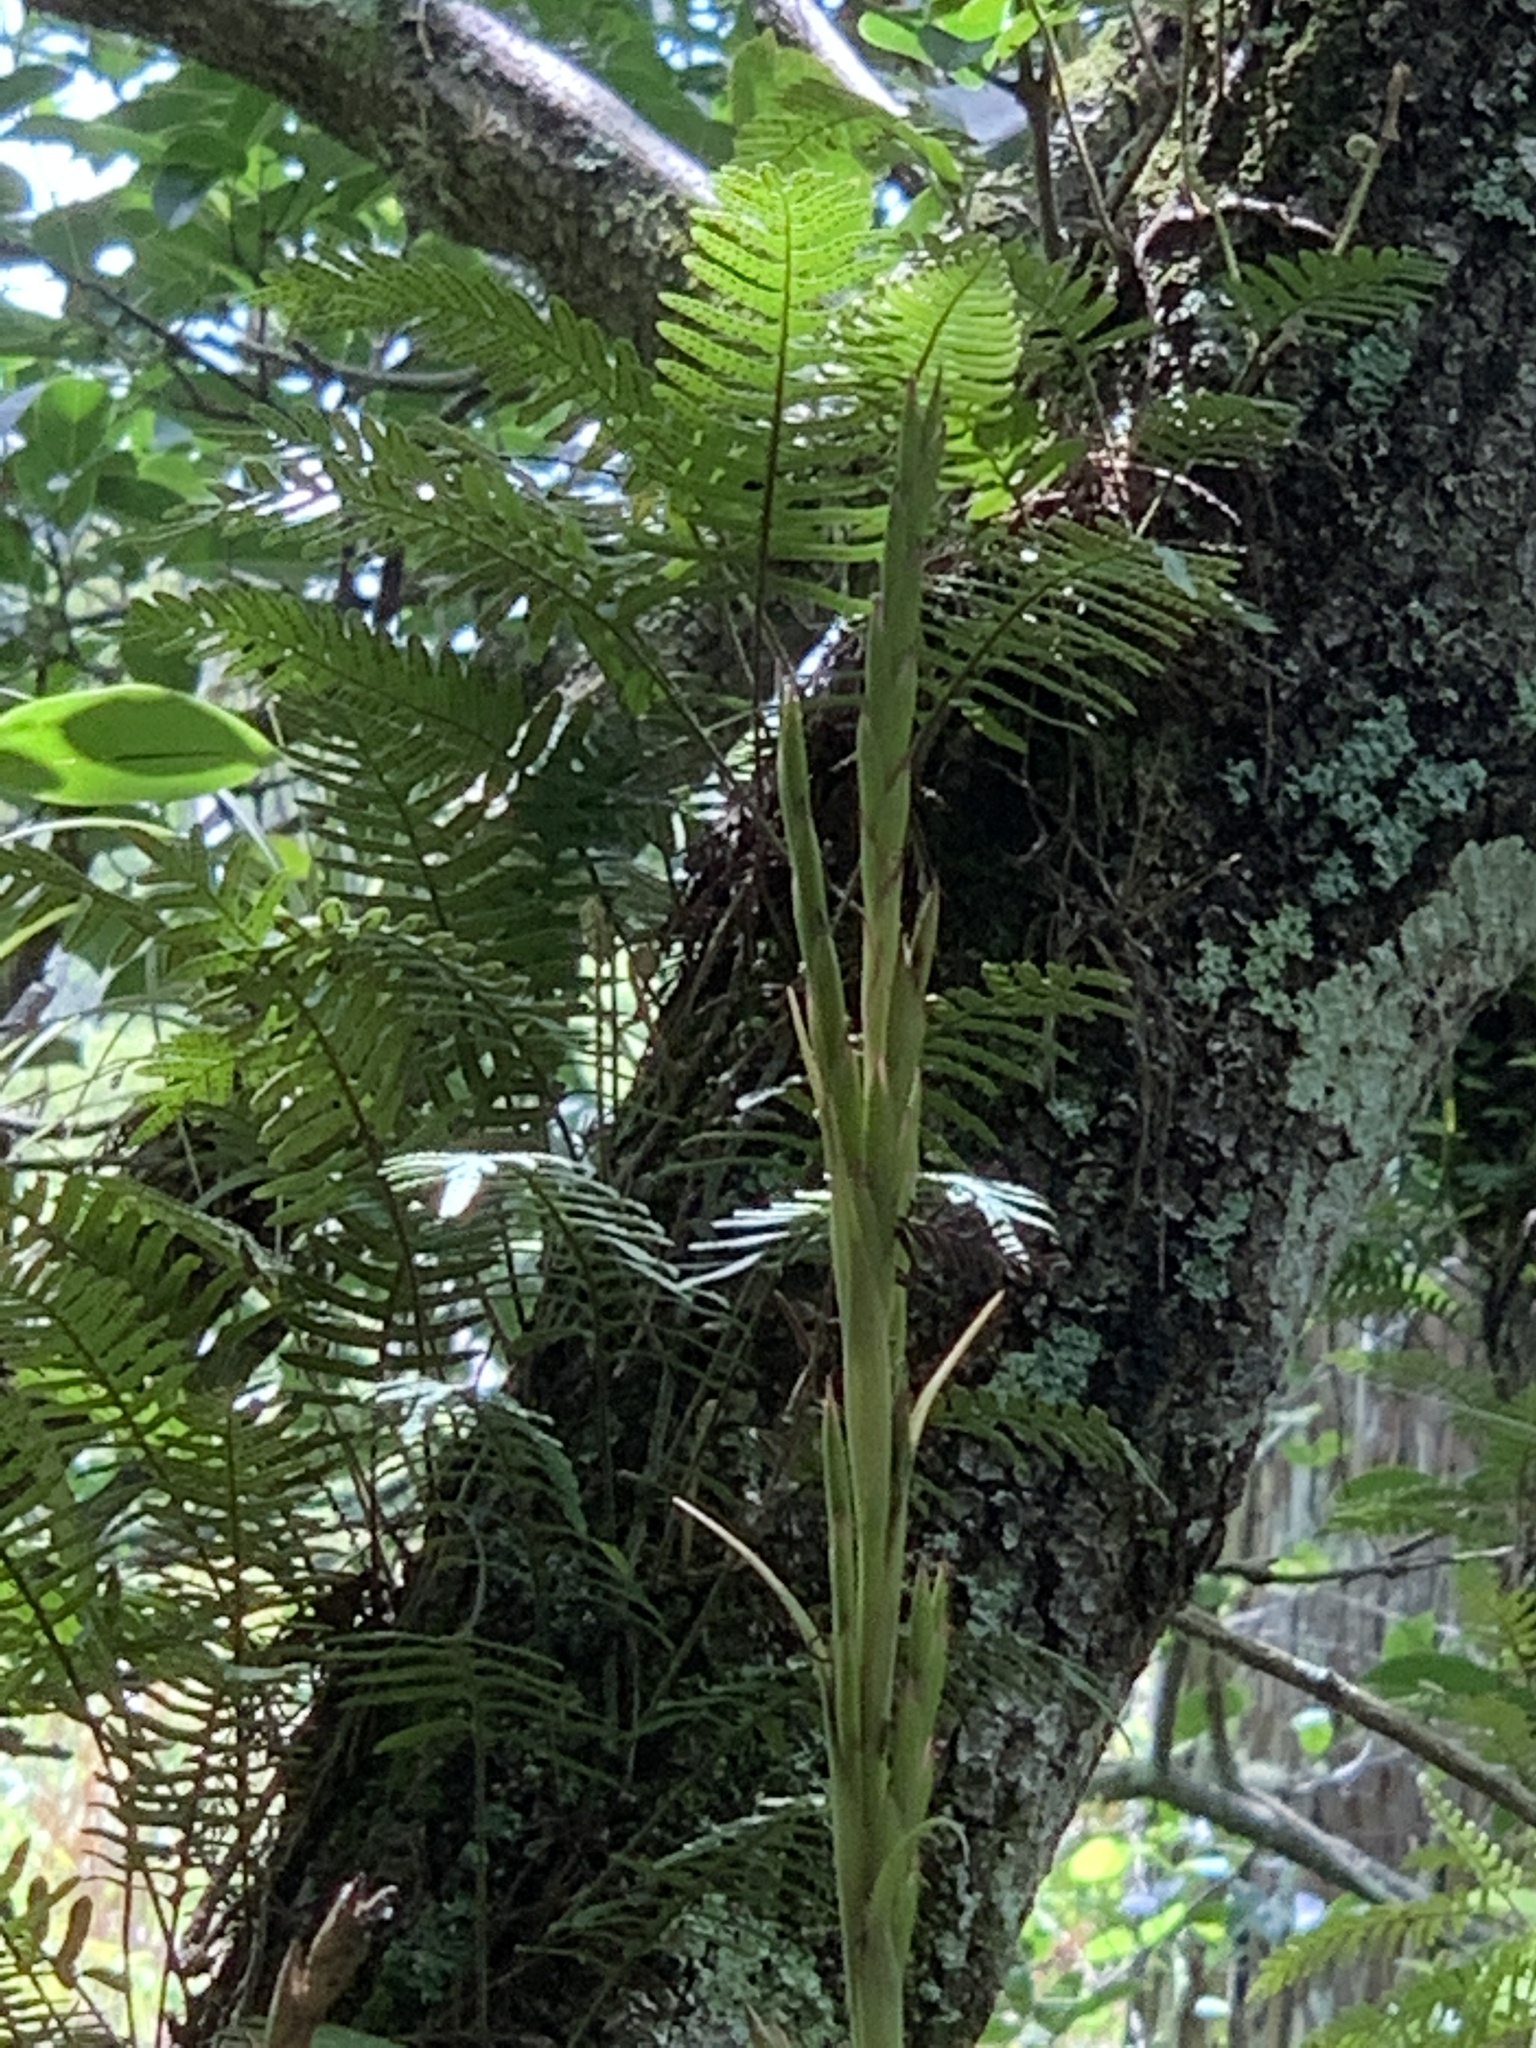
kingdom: Plantae
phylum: Tracheophyta
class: Liliopsida
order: Poales
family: Bromeliaceae
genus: Tillandsia
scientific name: Tillandsia balbisiana
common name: Northern needleleaf
